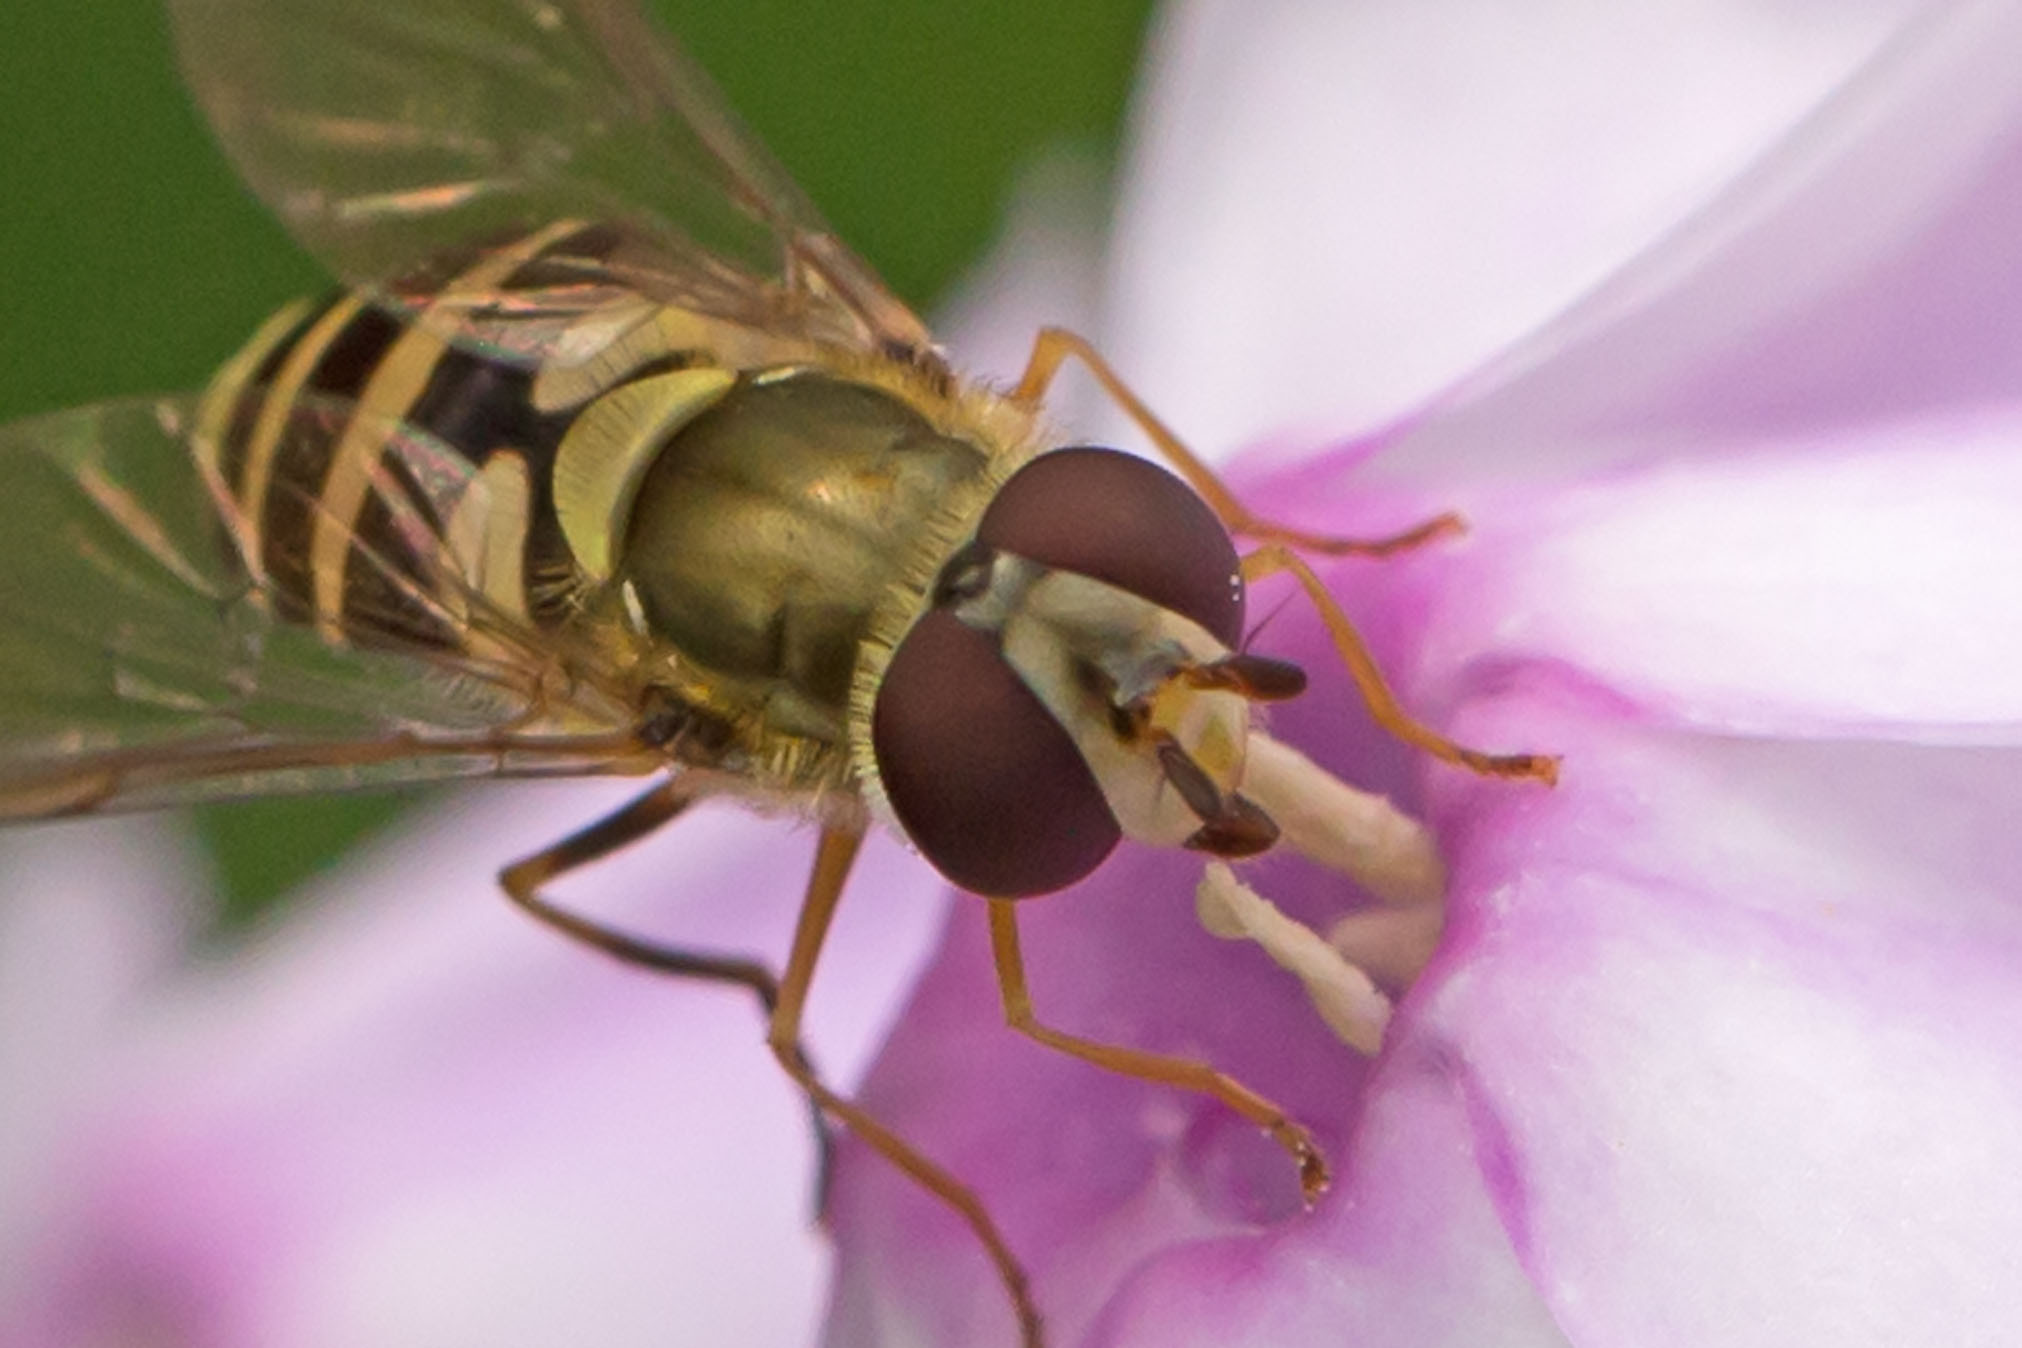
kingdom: Animalia
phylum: Arthropoda
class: Insecta
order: Diptera
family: Syrphidae
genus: Syrphus
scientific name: Syrphus rectus
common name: Yellow-legged flower fly
